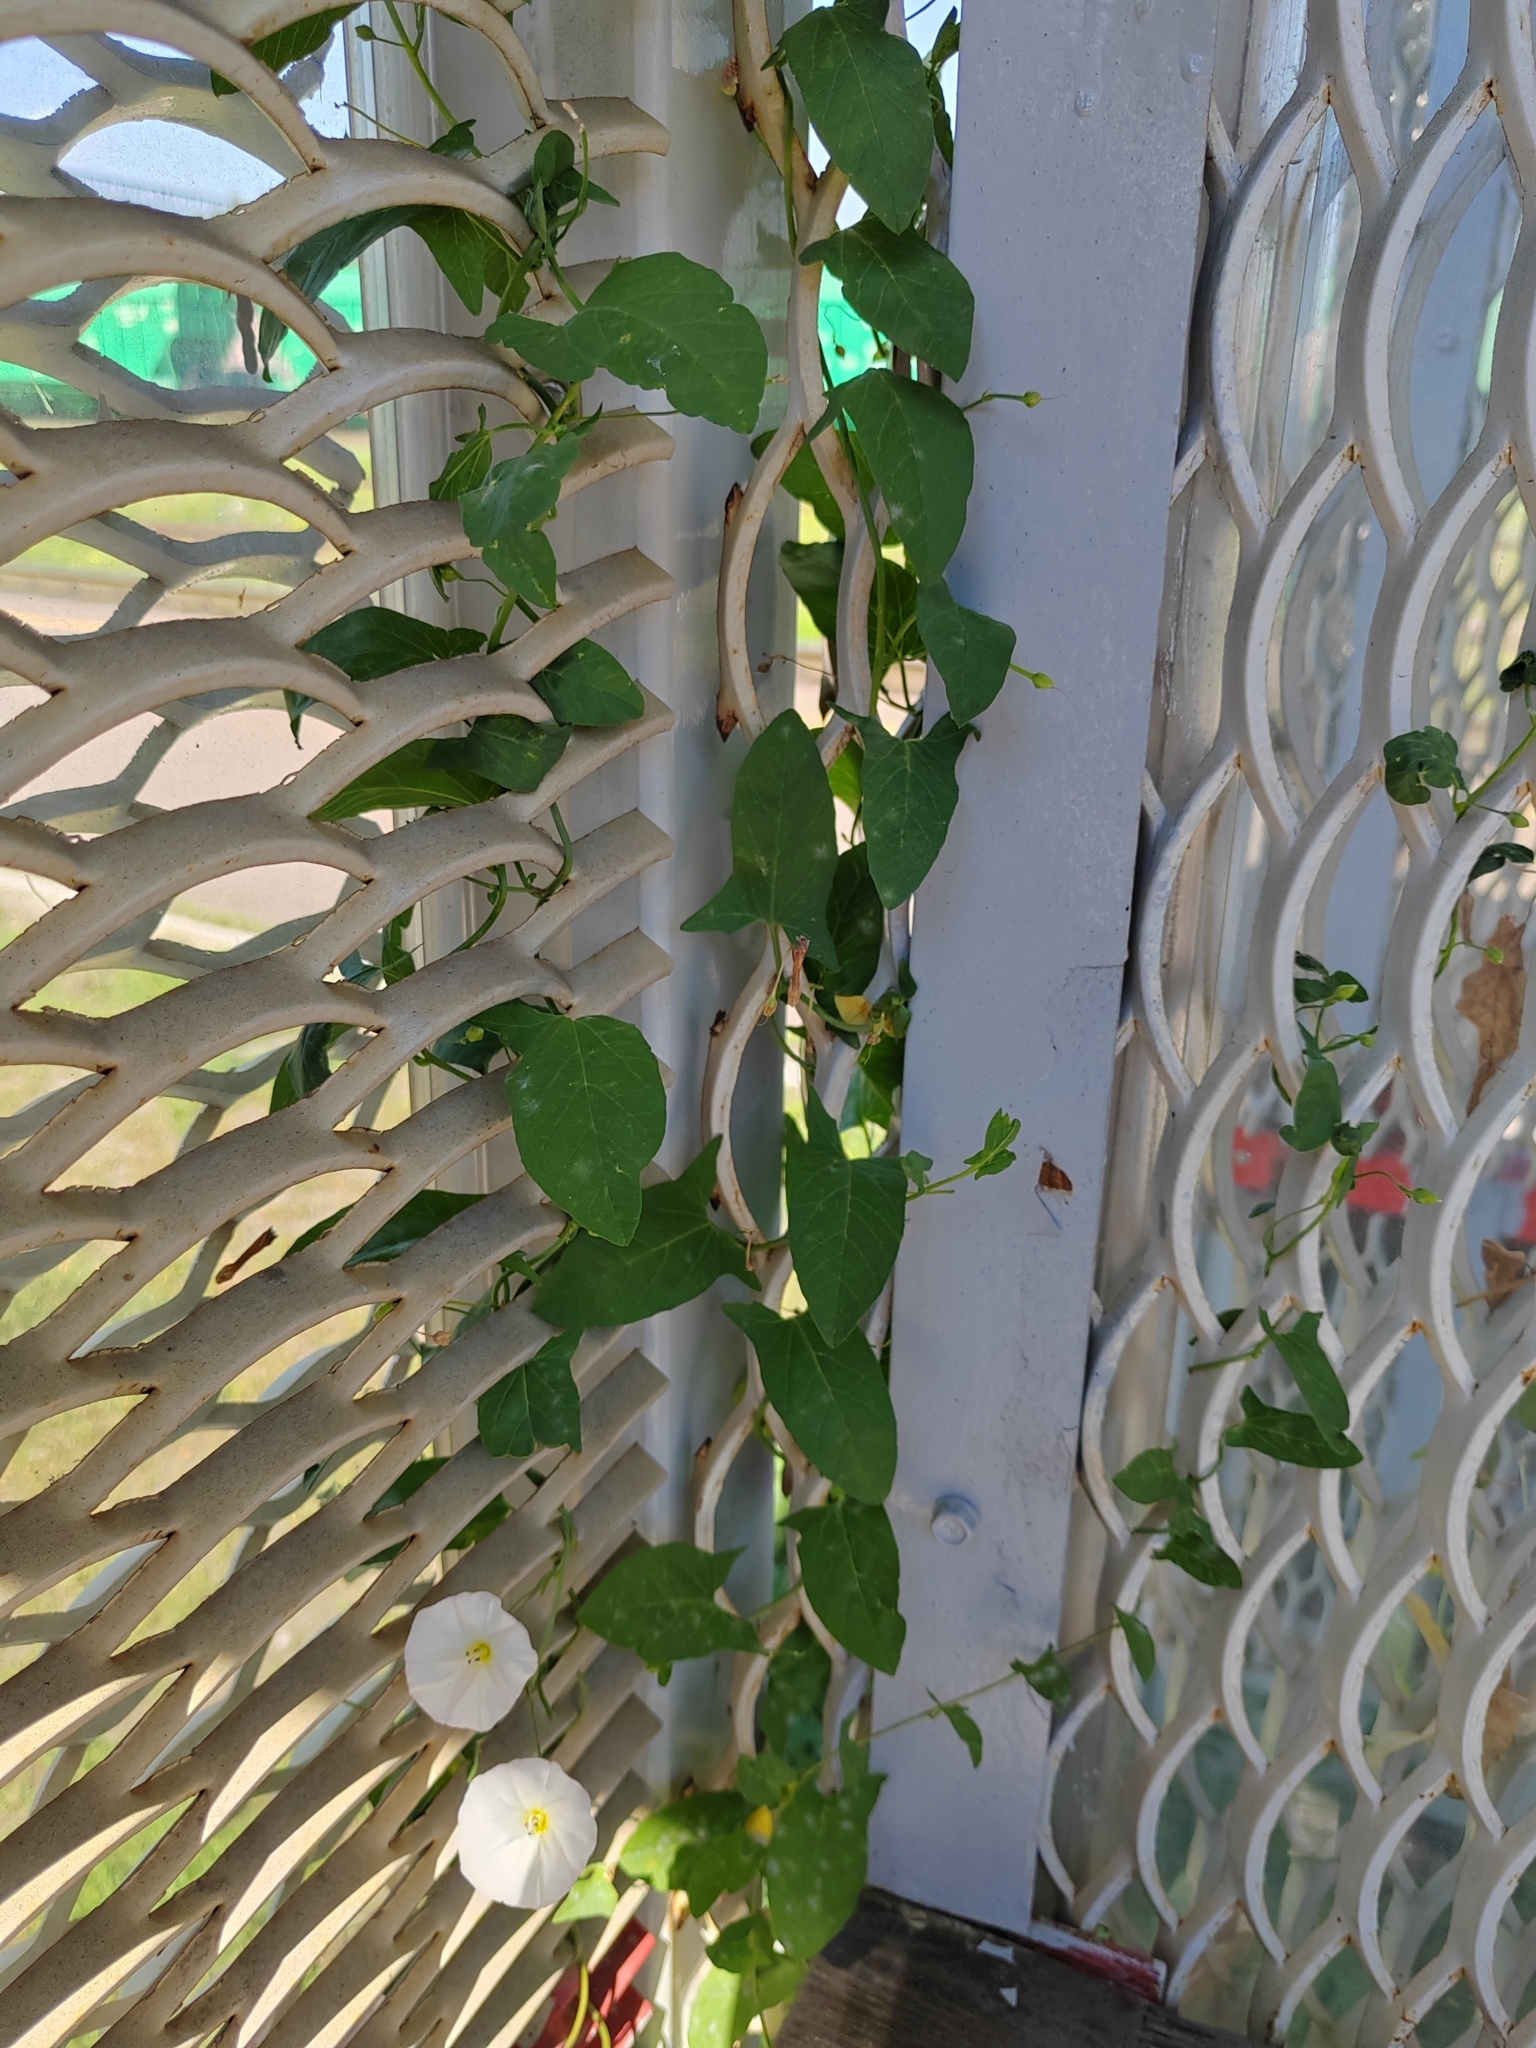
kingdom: Plantae
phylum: Tracheophyta
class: Magnoliopsida
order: Solanales
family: Convolvulaceae
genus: Convolvulus
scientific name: Convolvulus arvensis
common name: Field bindweed
